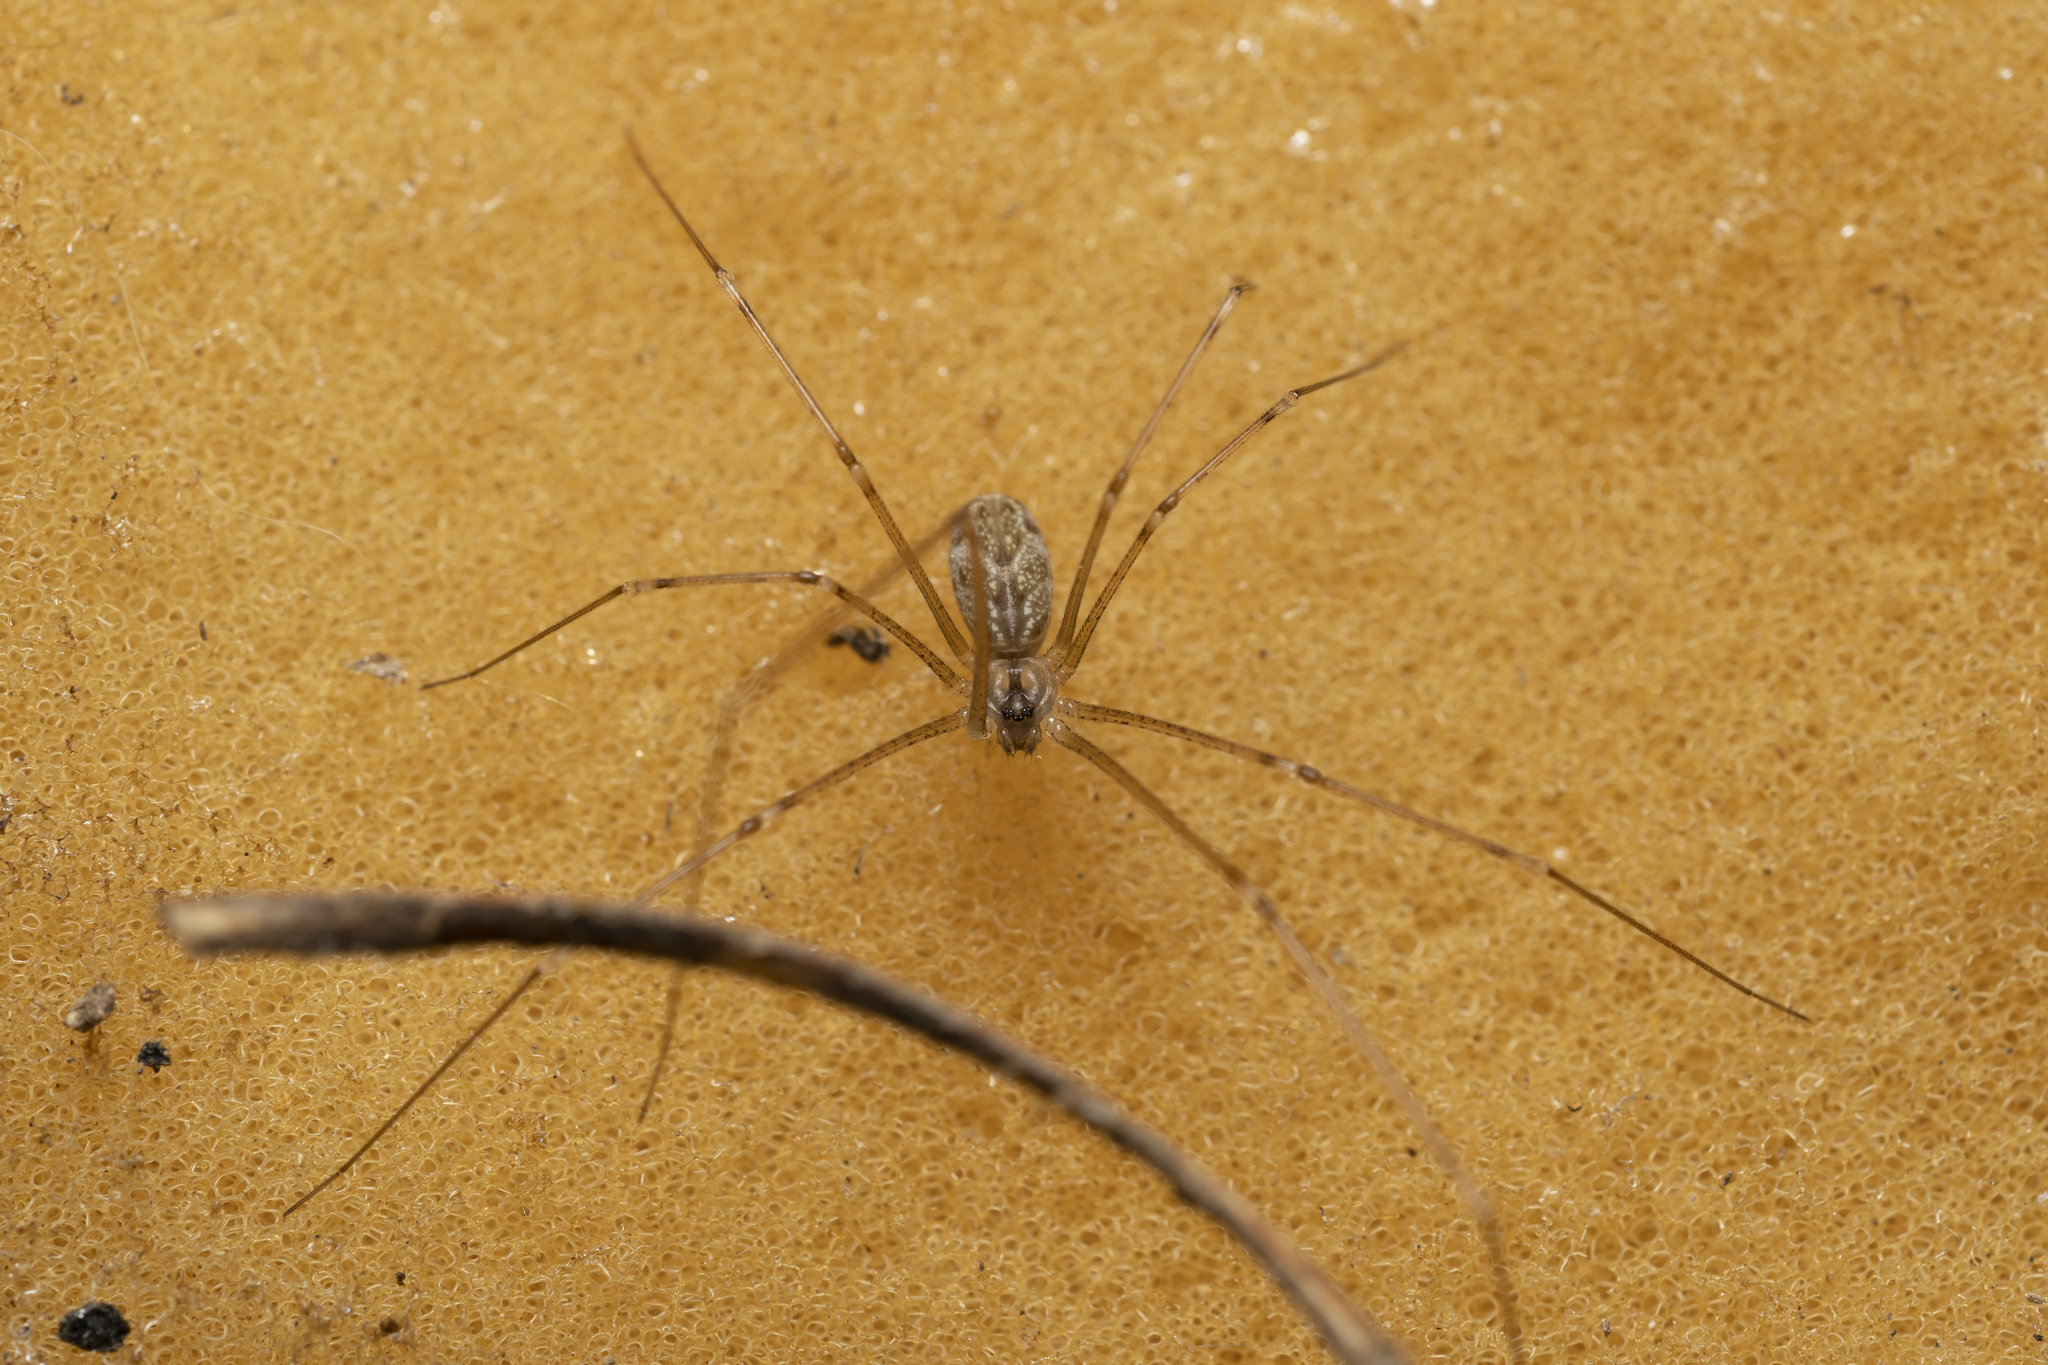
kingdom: Animalia
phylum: Arthropoda
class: Arachnida
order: Araneae
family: Pholcidae
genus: Holocnemus
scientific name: Holocnemus pluchei
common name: Marbled cellar spider
